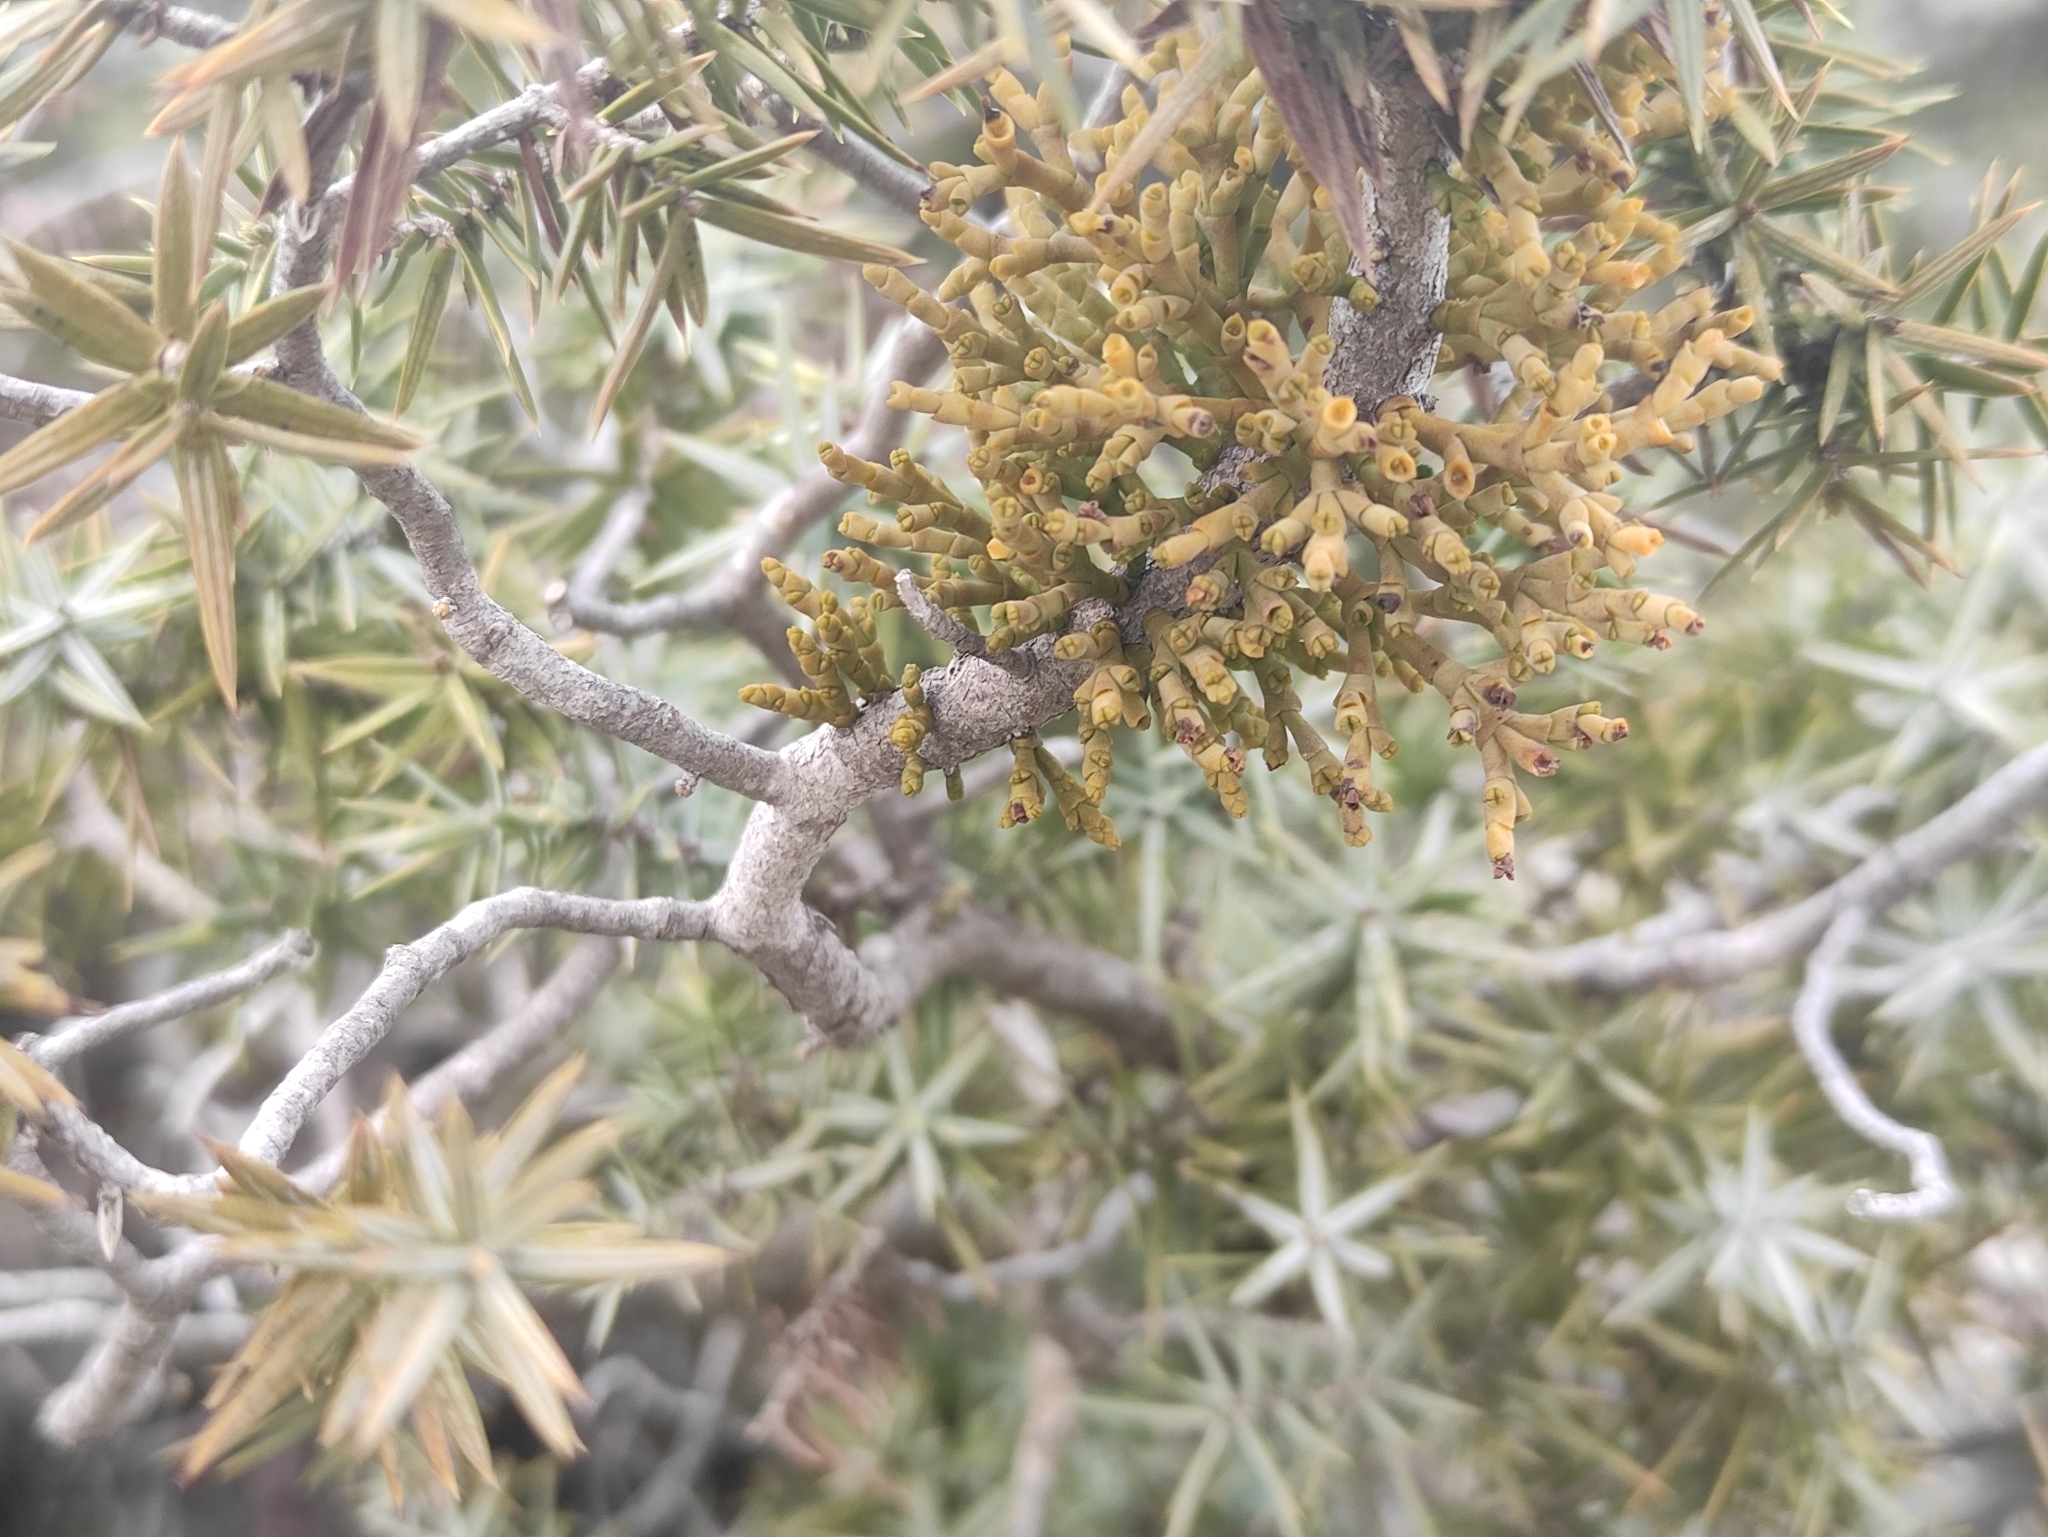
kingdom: Plantae
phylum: Tracheophyta
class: Magnoliopsida
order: Santalales
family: Viscaceae
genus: Arceuthobium
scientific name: Arceuthobium oxycedri
